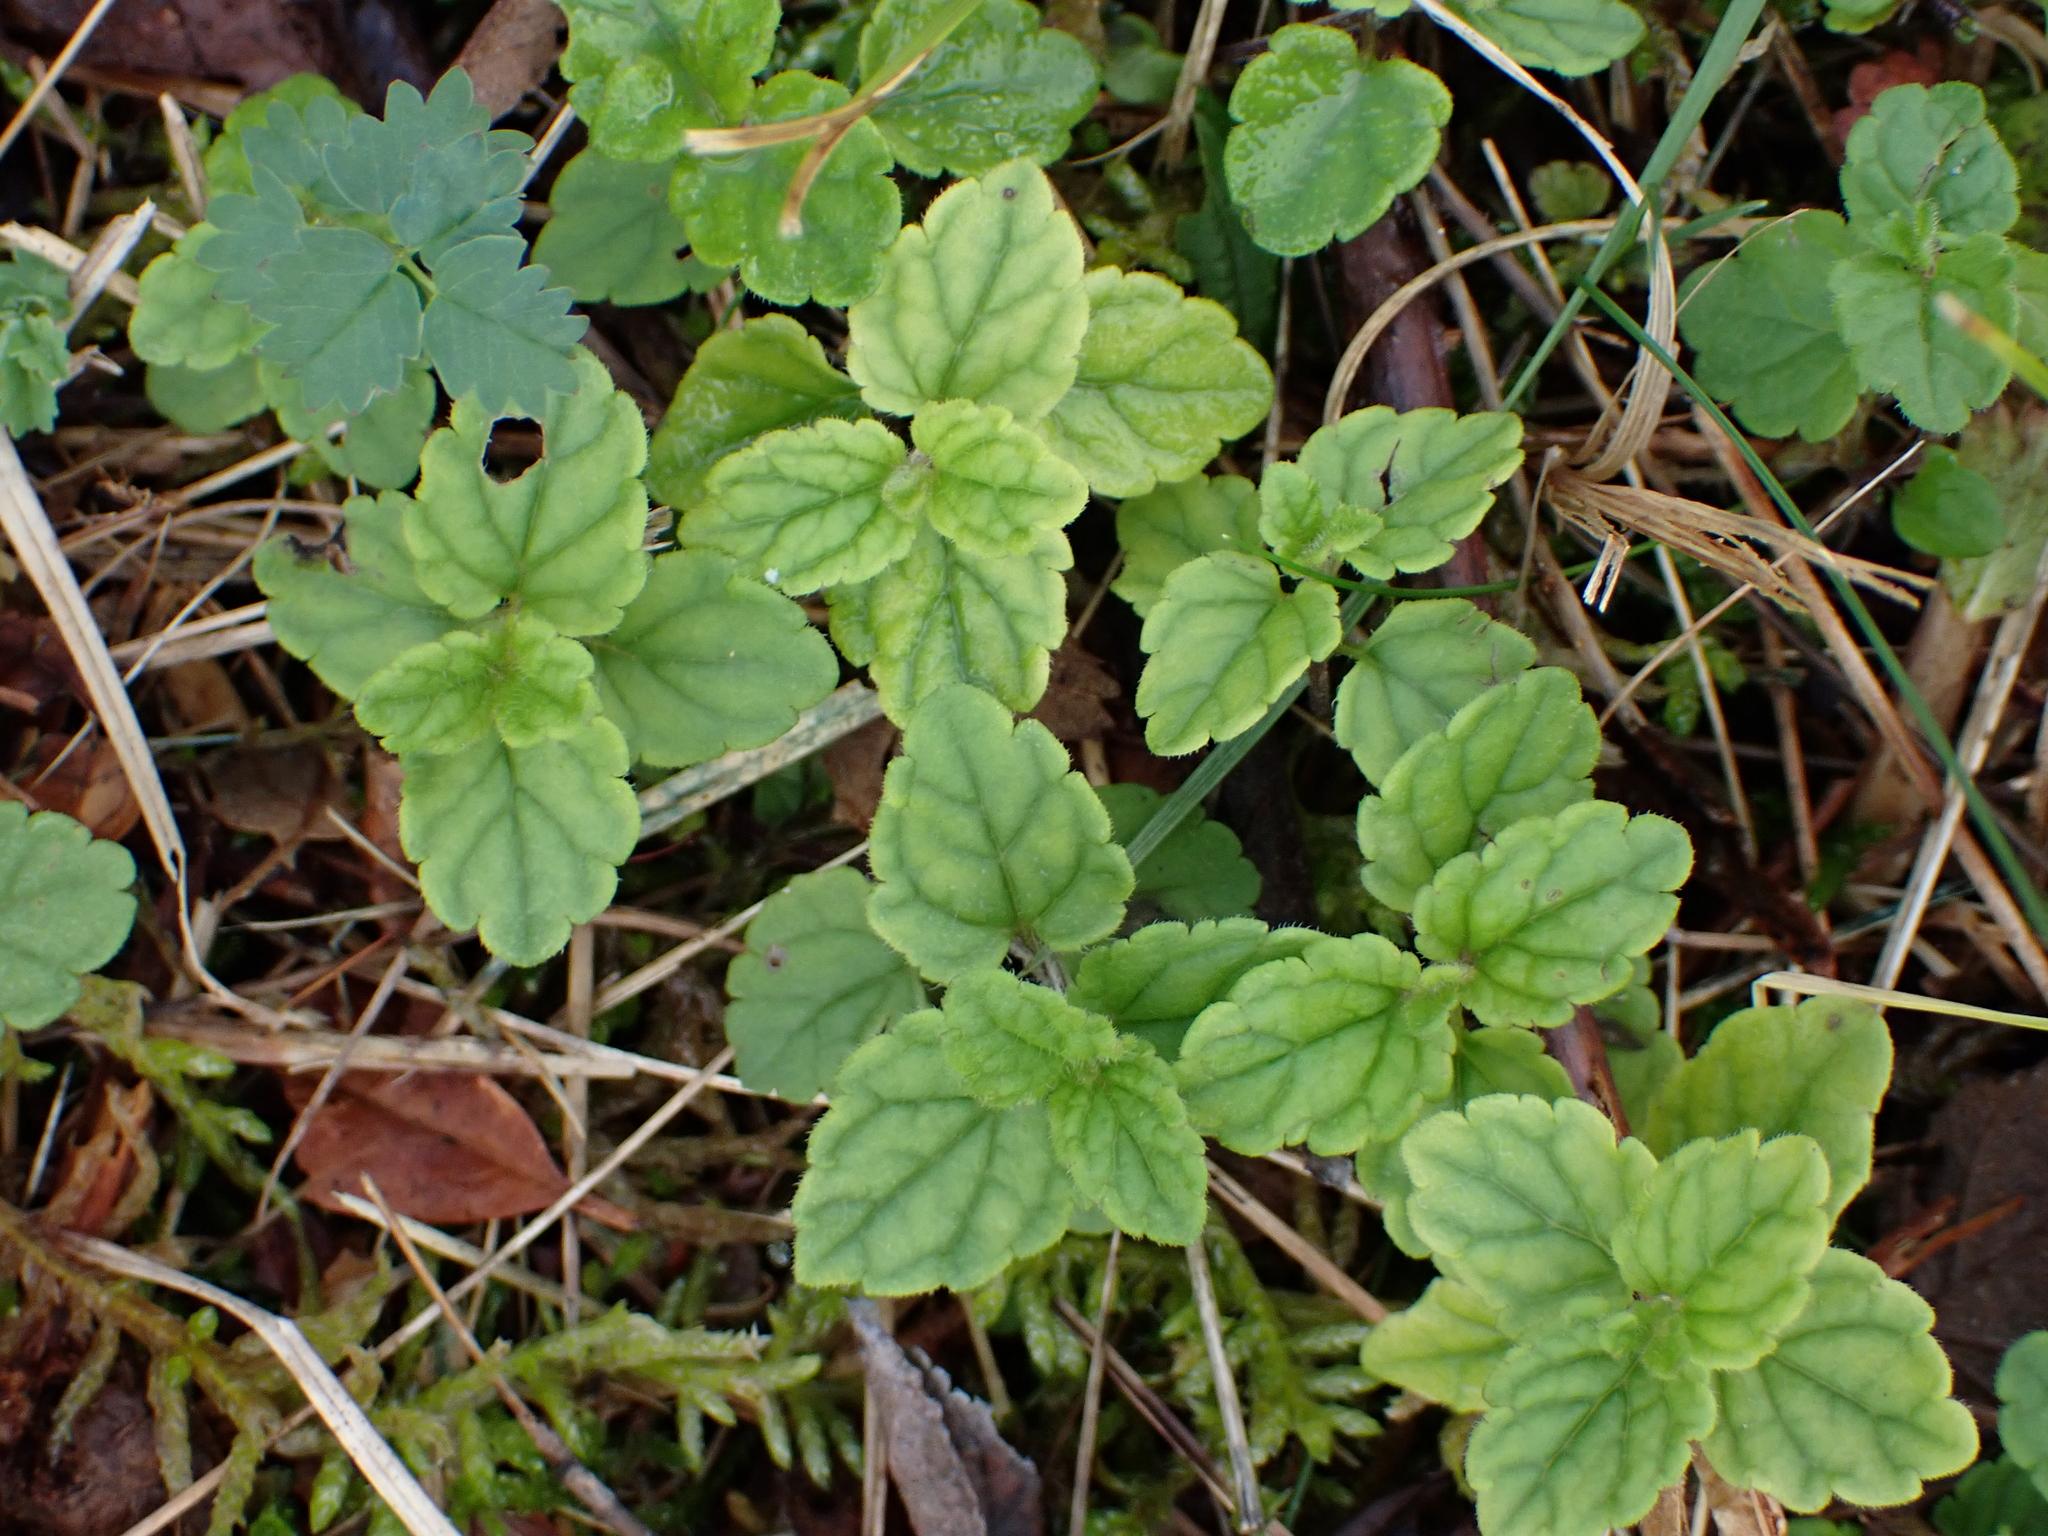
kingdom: Plantae
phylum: Tracheophyta
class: Magnoliopsida
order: Lamiales
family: Plantaginaceae
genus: Veronica
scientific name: Veronica chamaedrys
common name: Germander speedwell
